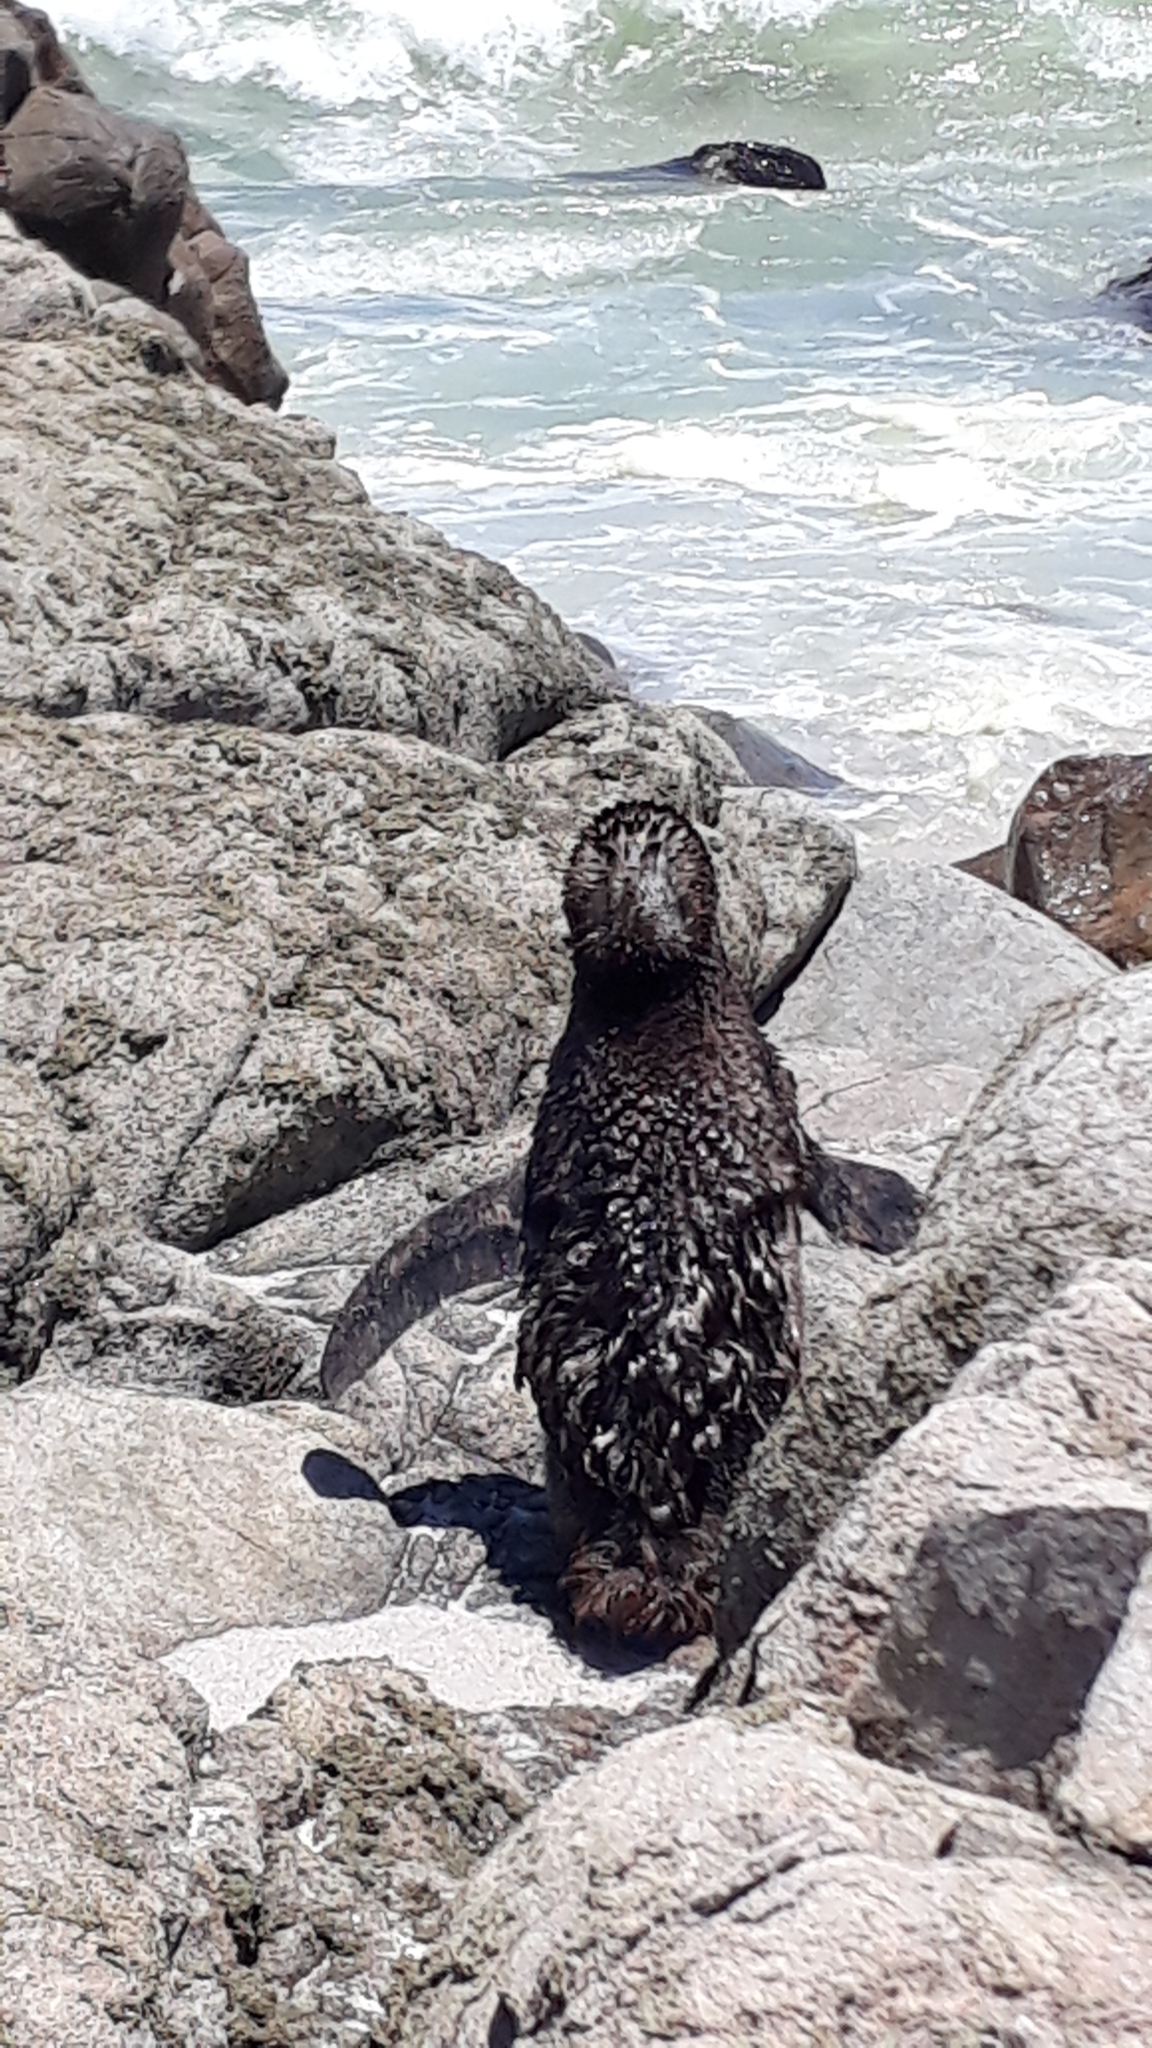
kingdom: Animalia
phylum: Chordata
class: Aves
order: Sphenisciformes
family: Spheniscidae
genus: Spheniscus
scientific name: Spheniscus demersus
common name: African penguin
